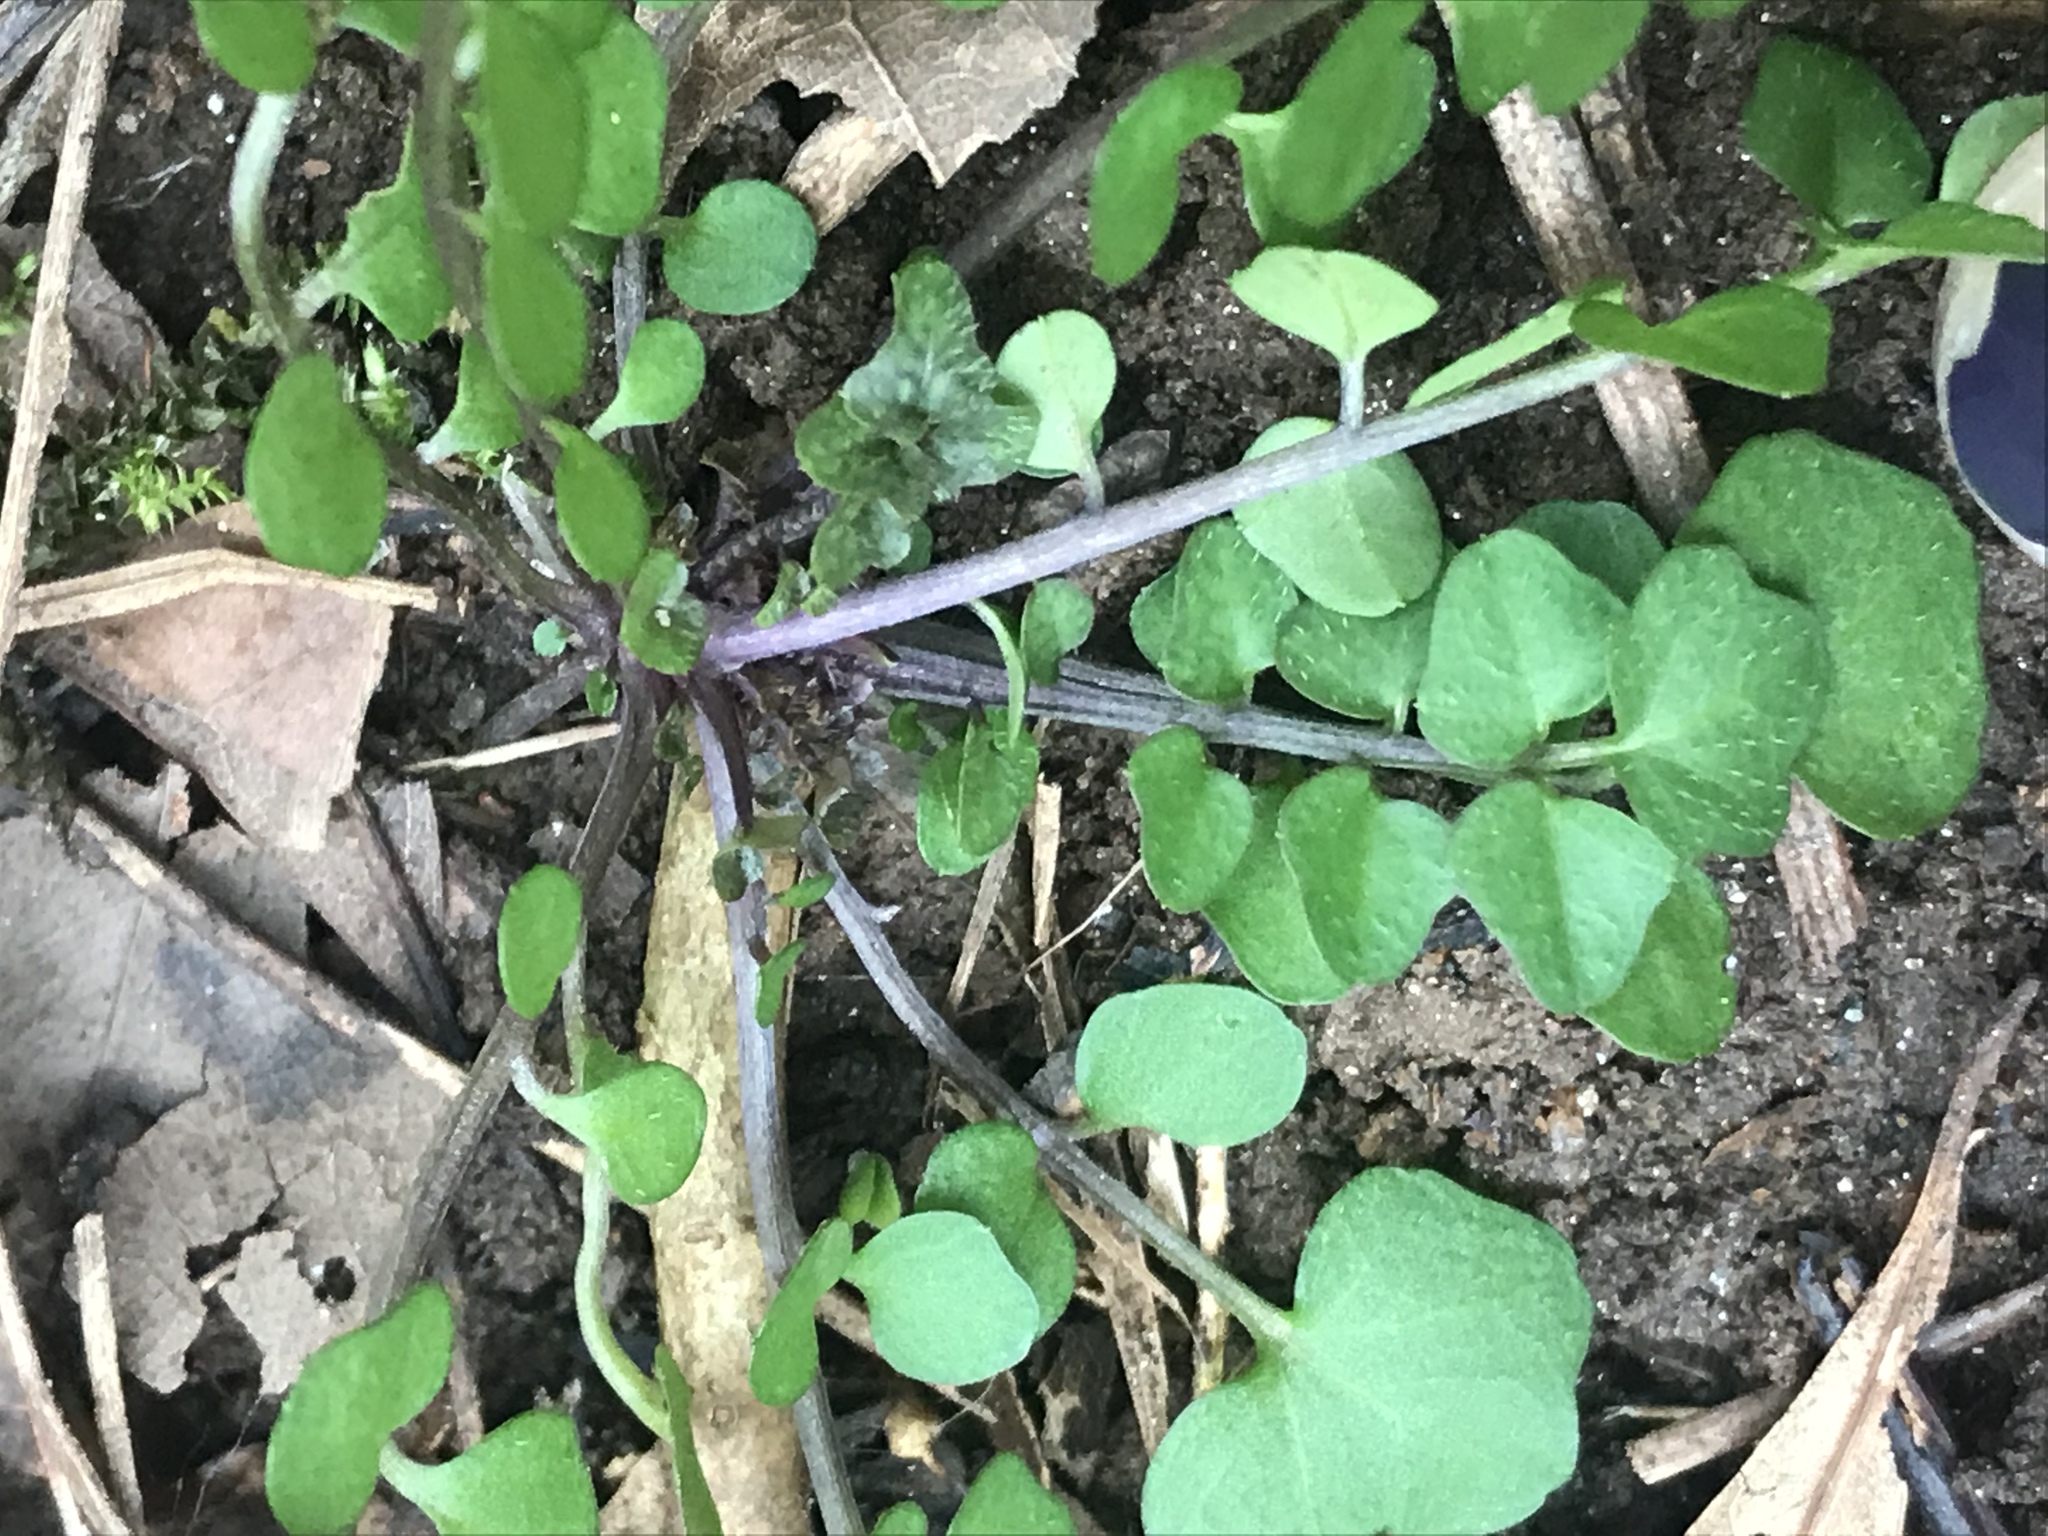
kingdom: Plantae
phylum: Tracheophyta
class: Magnoliopsida
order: Brassicales
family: Brassicaceae
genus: Cardamine
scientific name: Cardamine hirsuta
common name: Hairy bittercress
